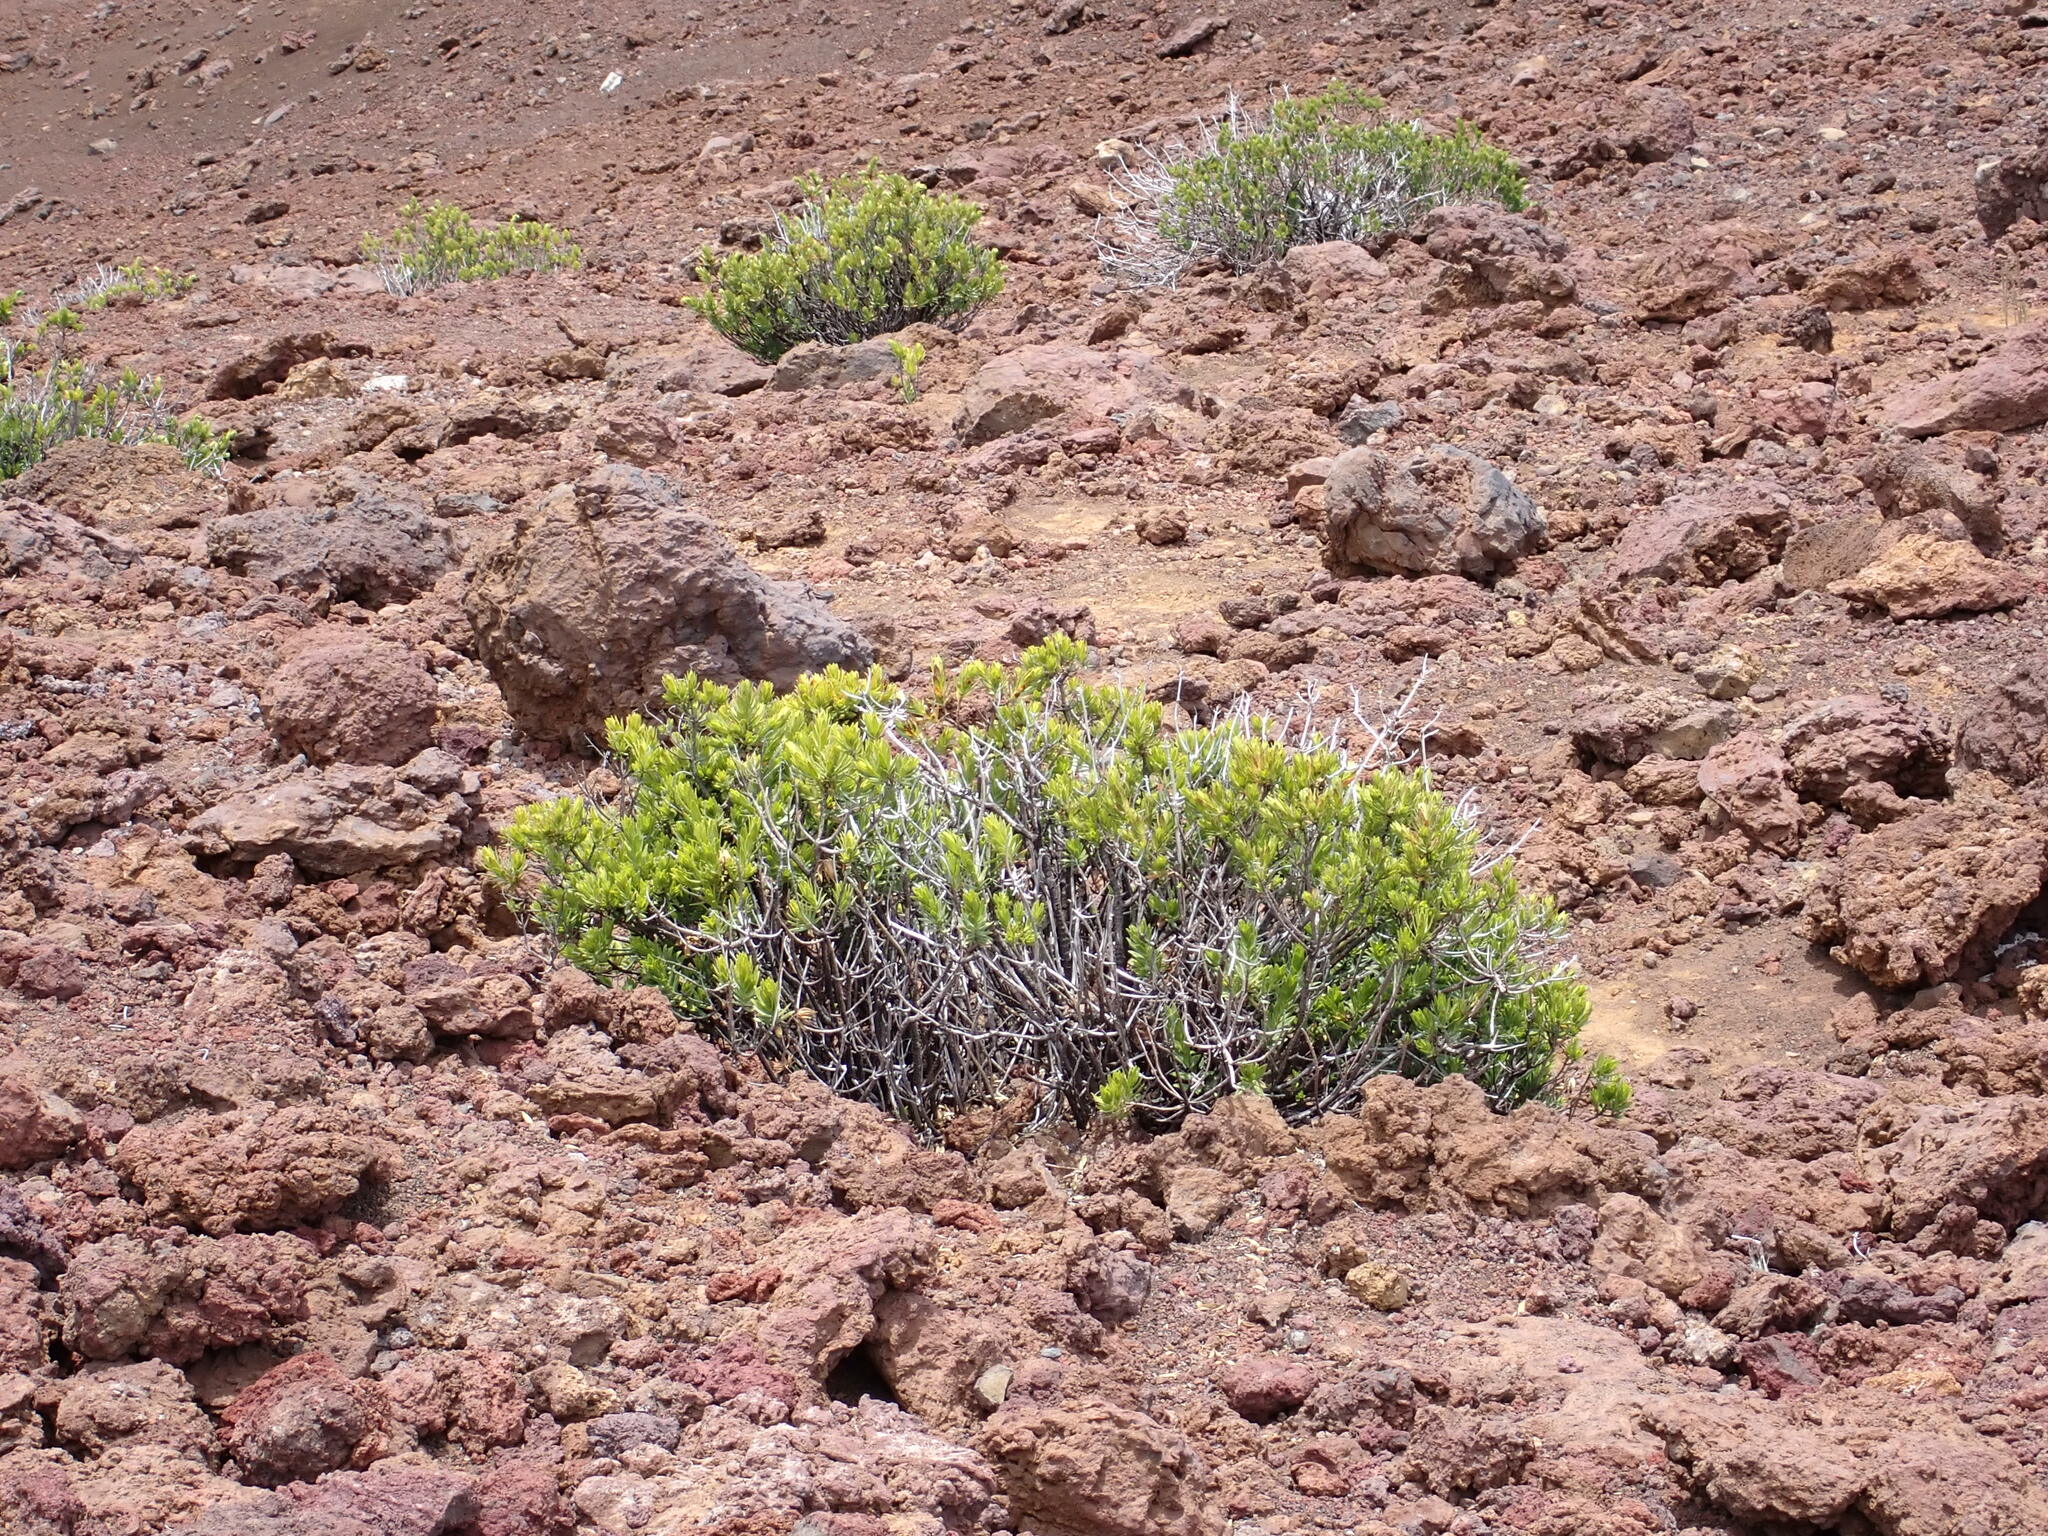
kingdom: Plantae
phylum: Tracheophyta
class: Magnoliopsida
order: Asterales
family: Asteraceae
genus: Dubautia
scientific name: Dubautia menziesii
